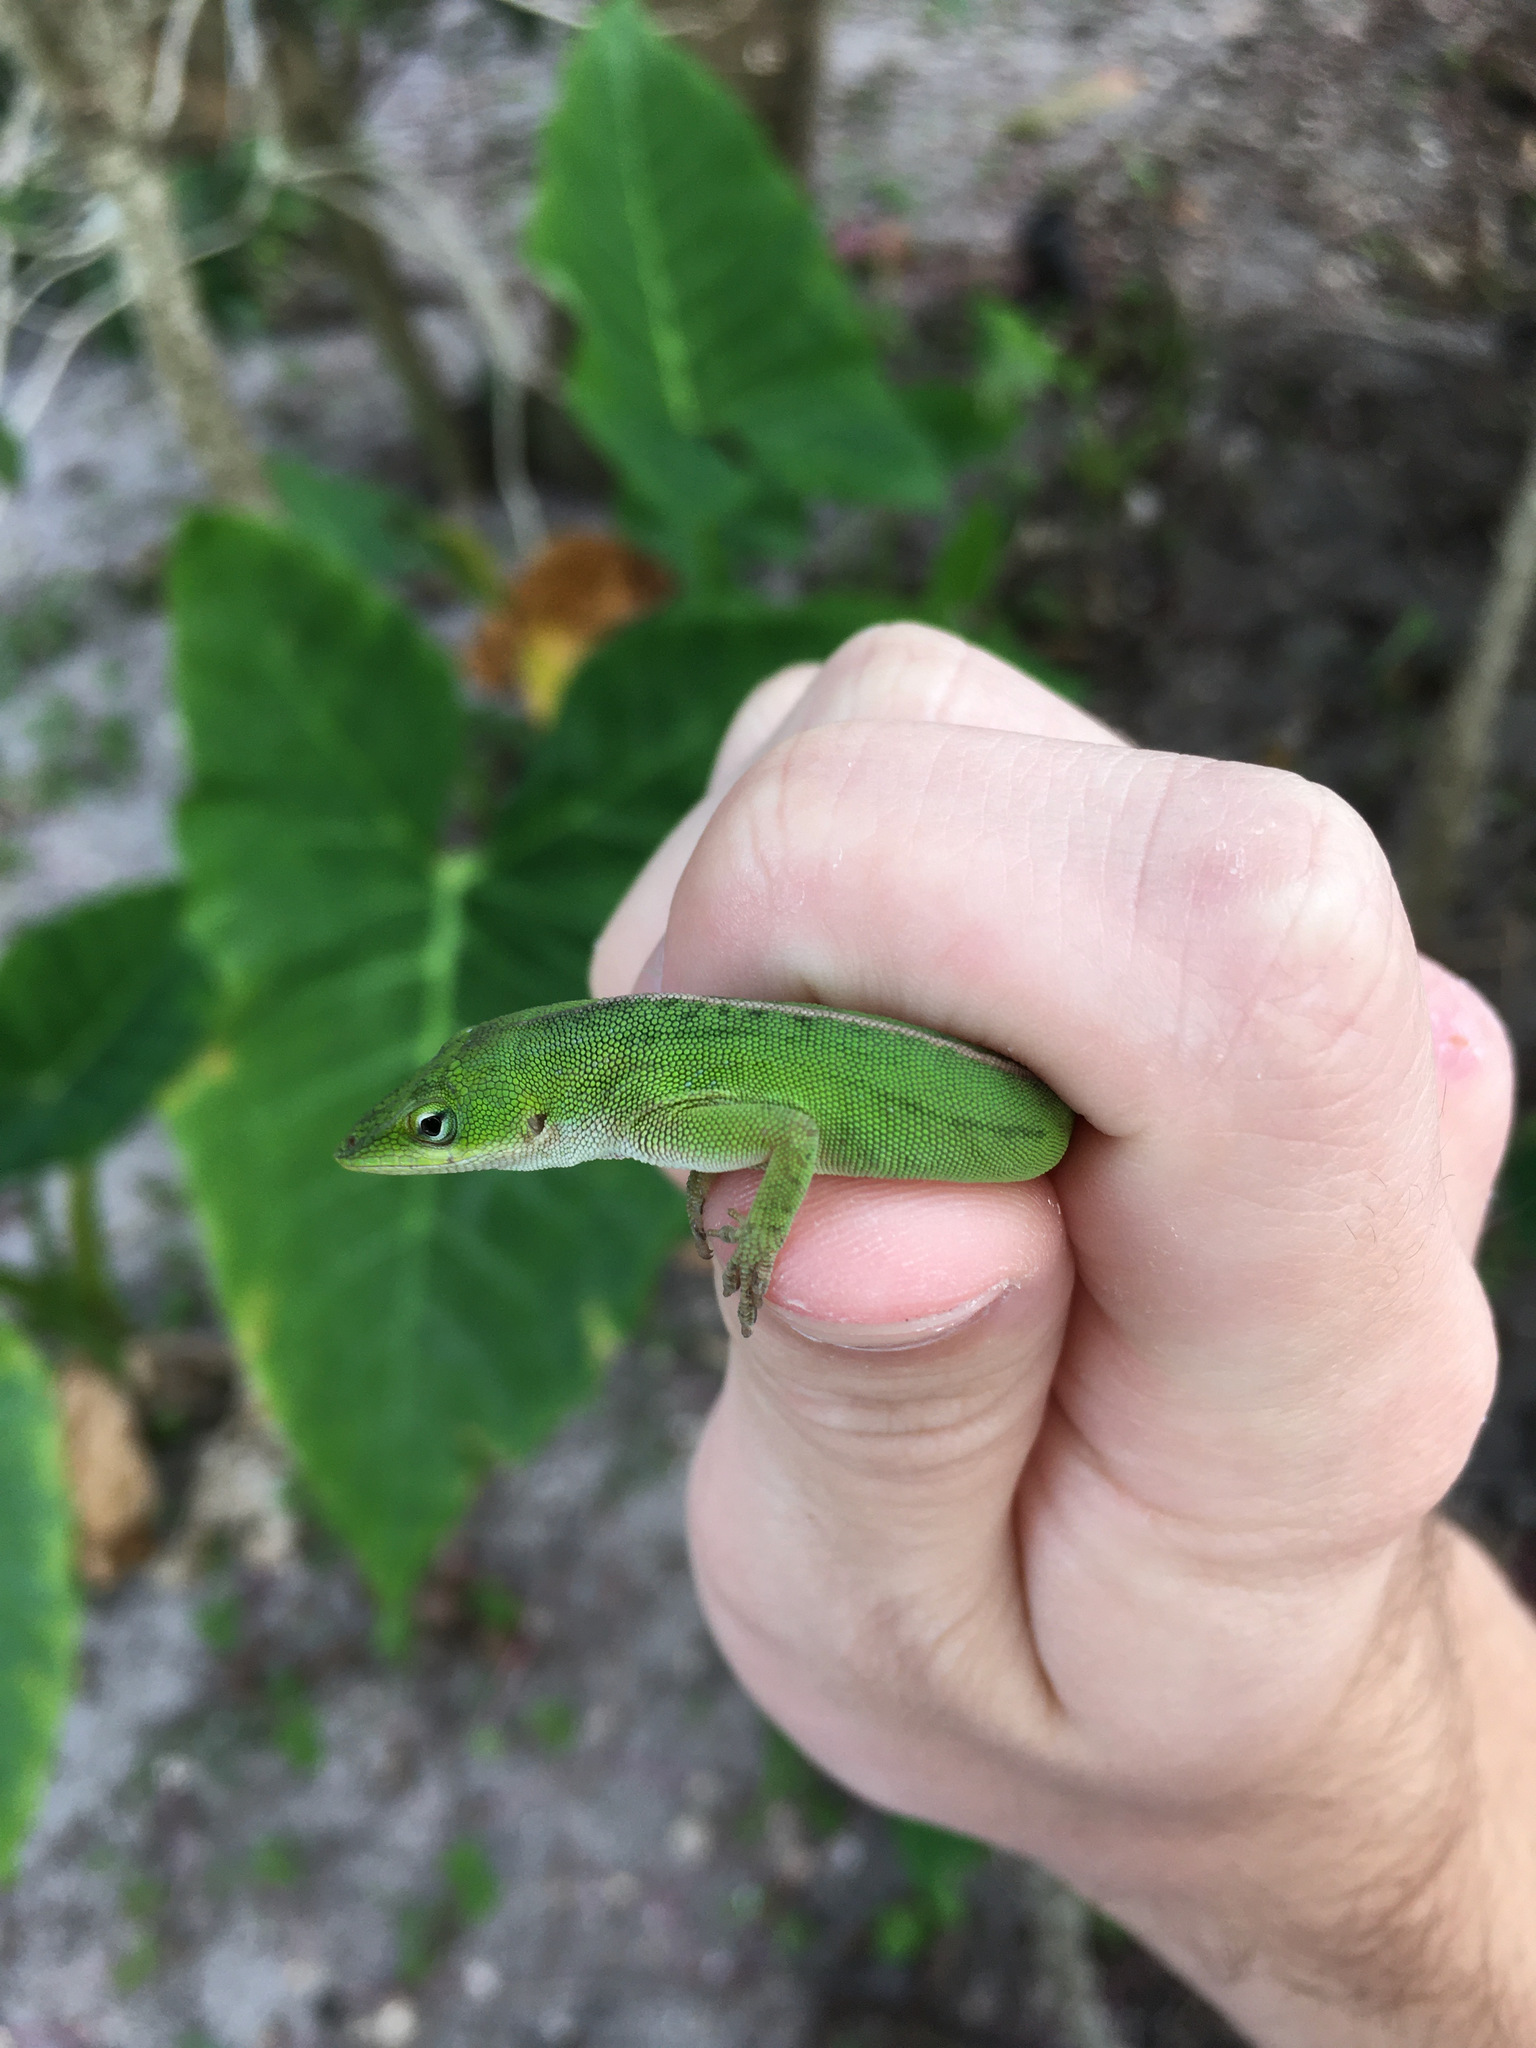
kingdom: Animalia
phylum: Chordata
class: Squamata
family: Dactyloidae
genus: Anolis
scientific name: Anolis carolinensis
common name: Green anole
